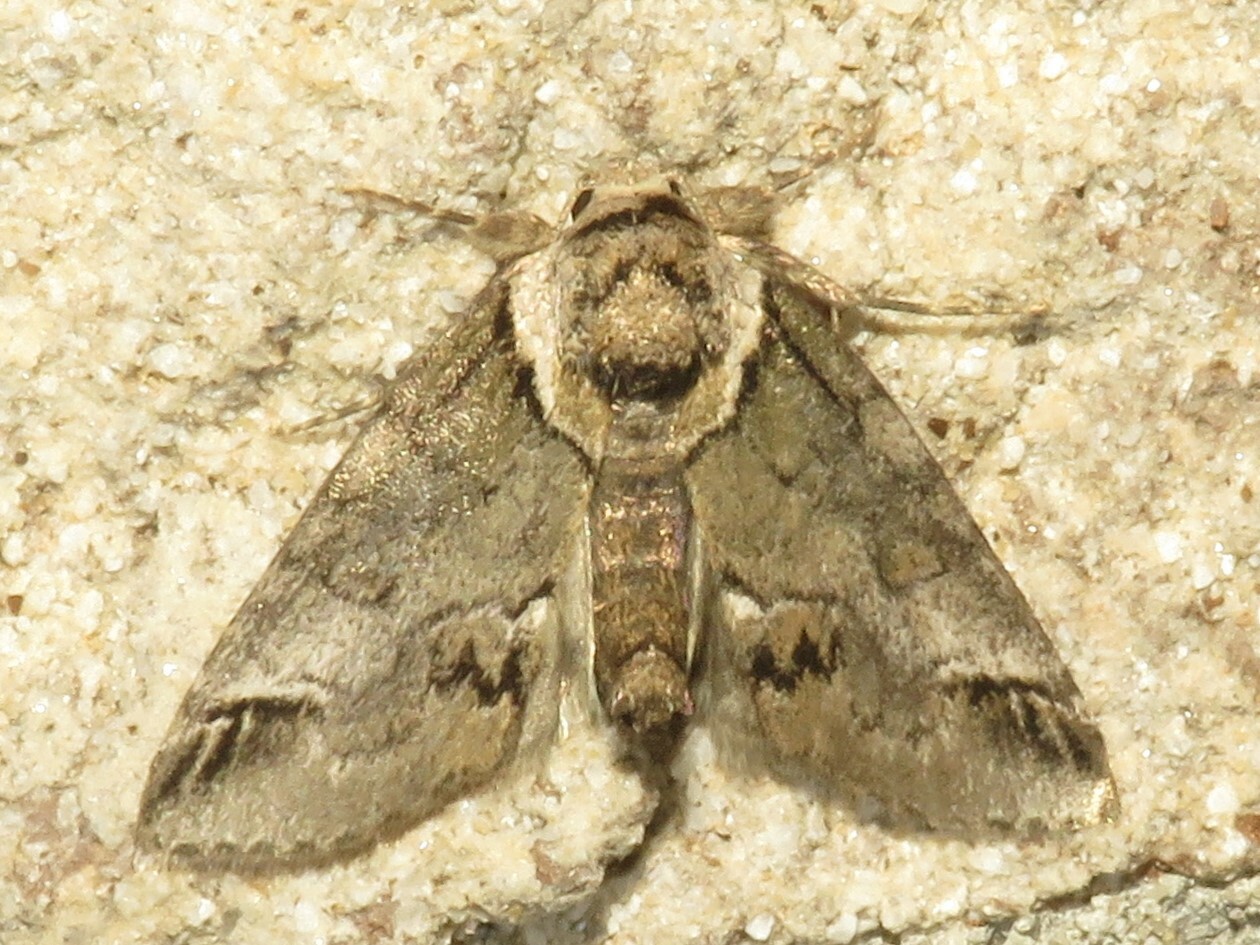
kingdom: Animalia
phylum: Arthropoda
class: Insecta
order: Lepidoptera
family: Nolidae
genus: Baileya
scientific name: Baileya australis
